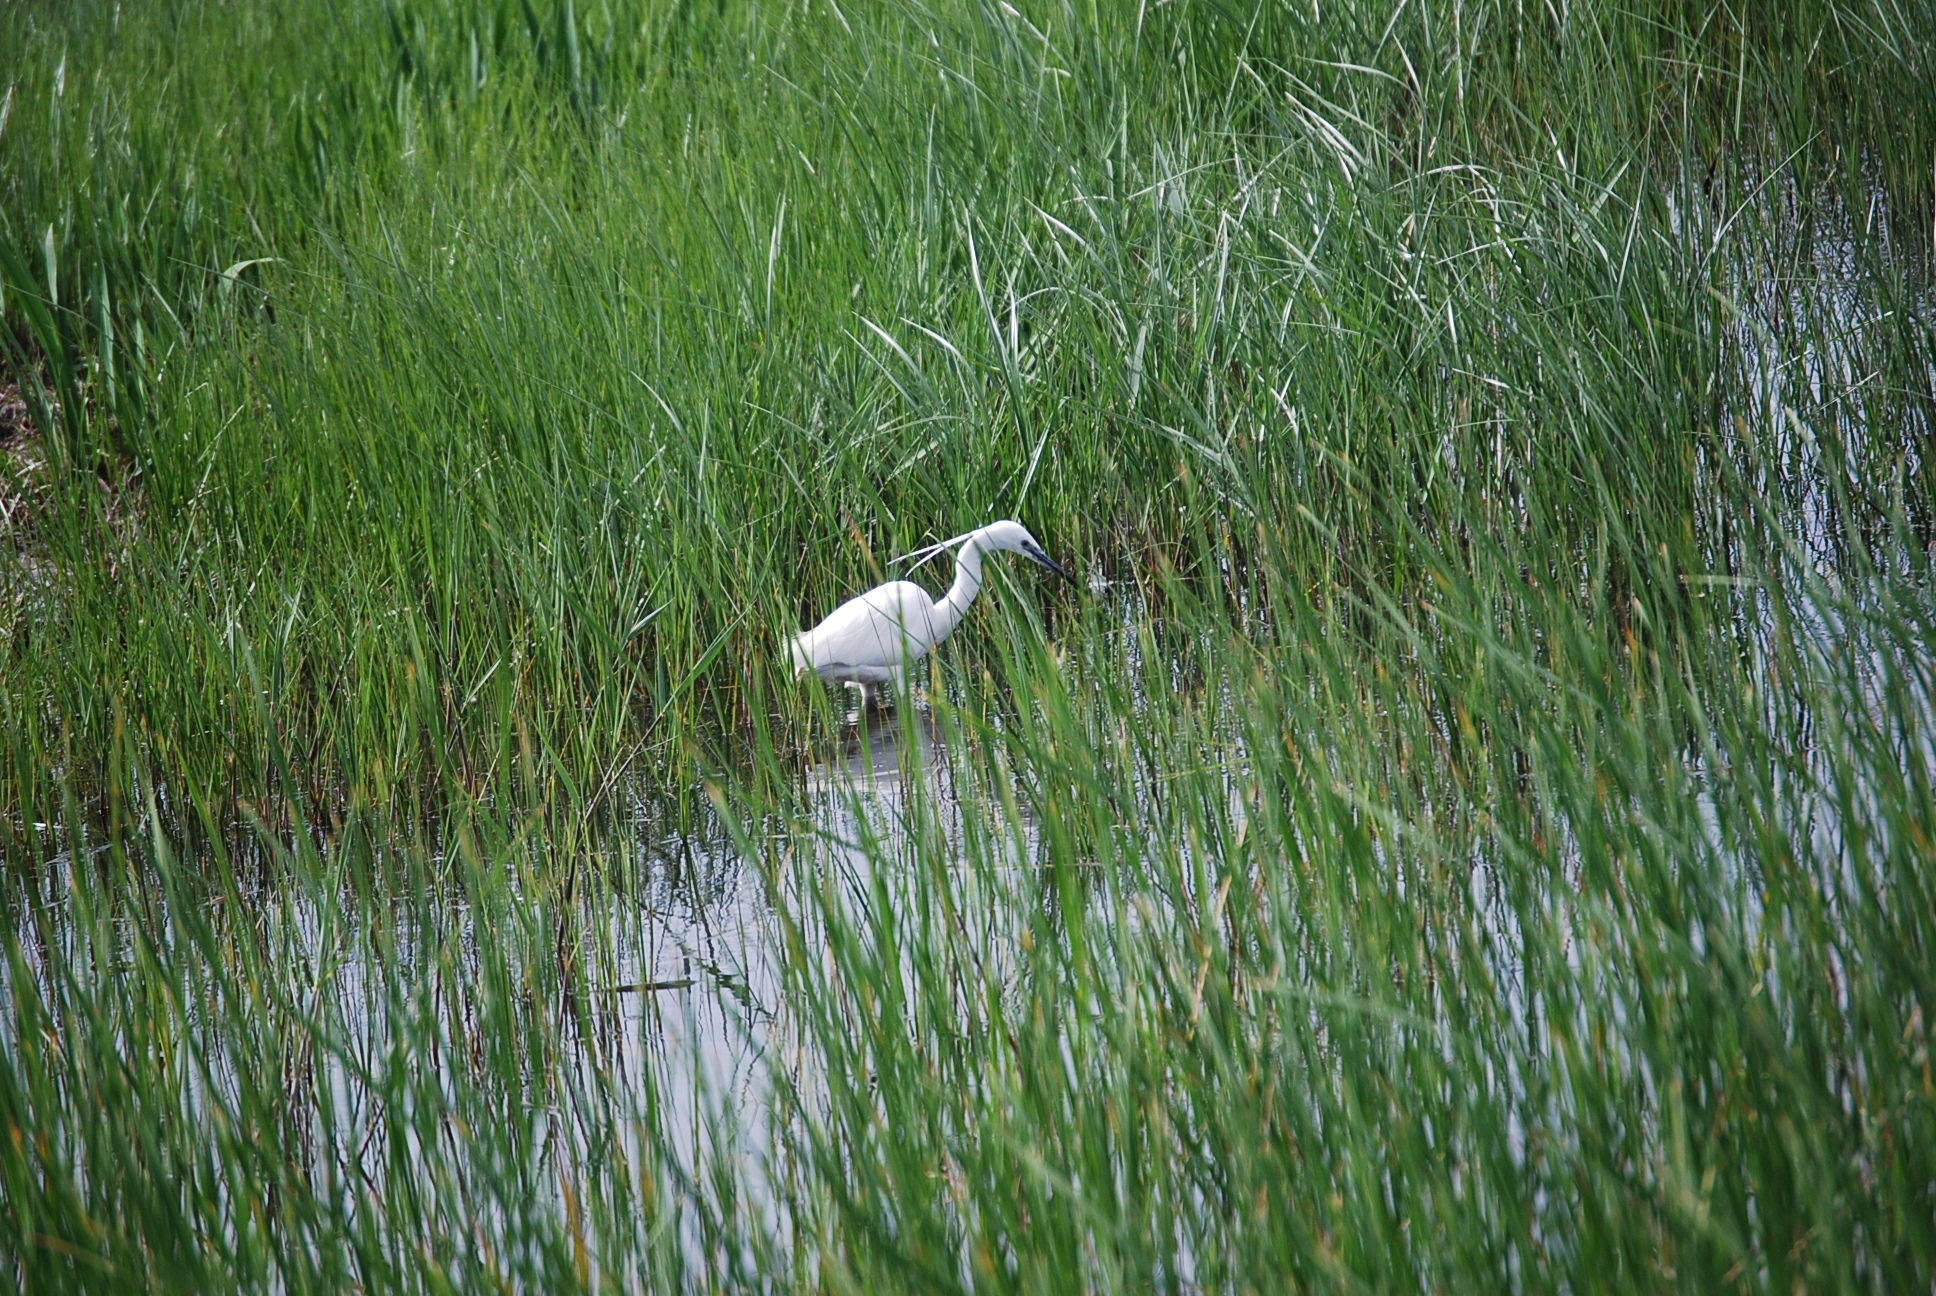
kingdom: Animalia
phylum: Chordata
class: Aves
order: Pelecaniformes
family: Ardeidae
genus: Egretta
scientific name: Egretta garzetta
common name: Little egret
